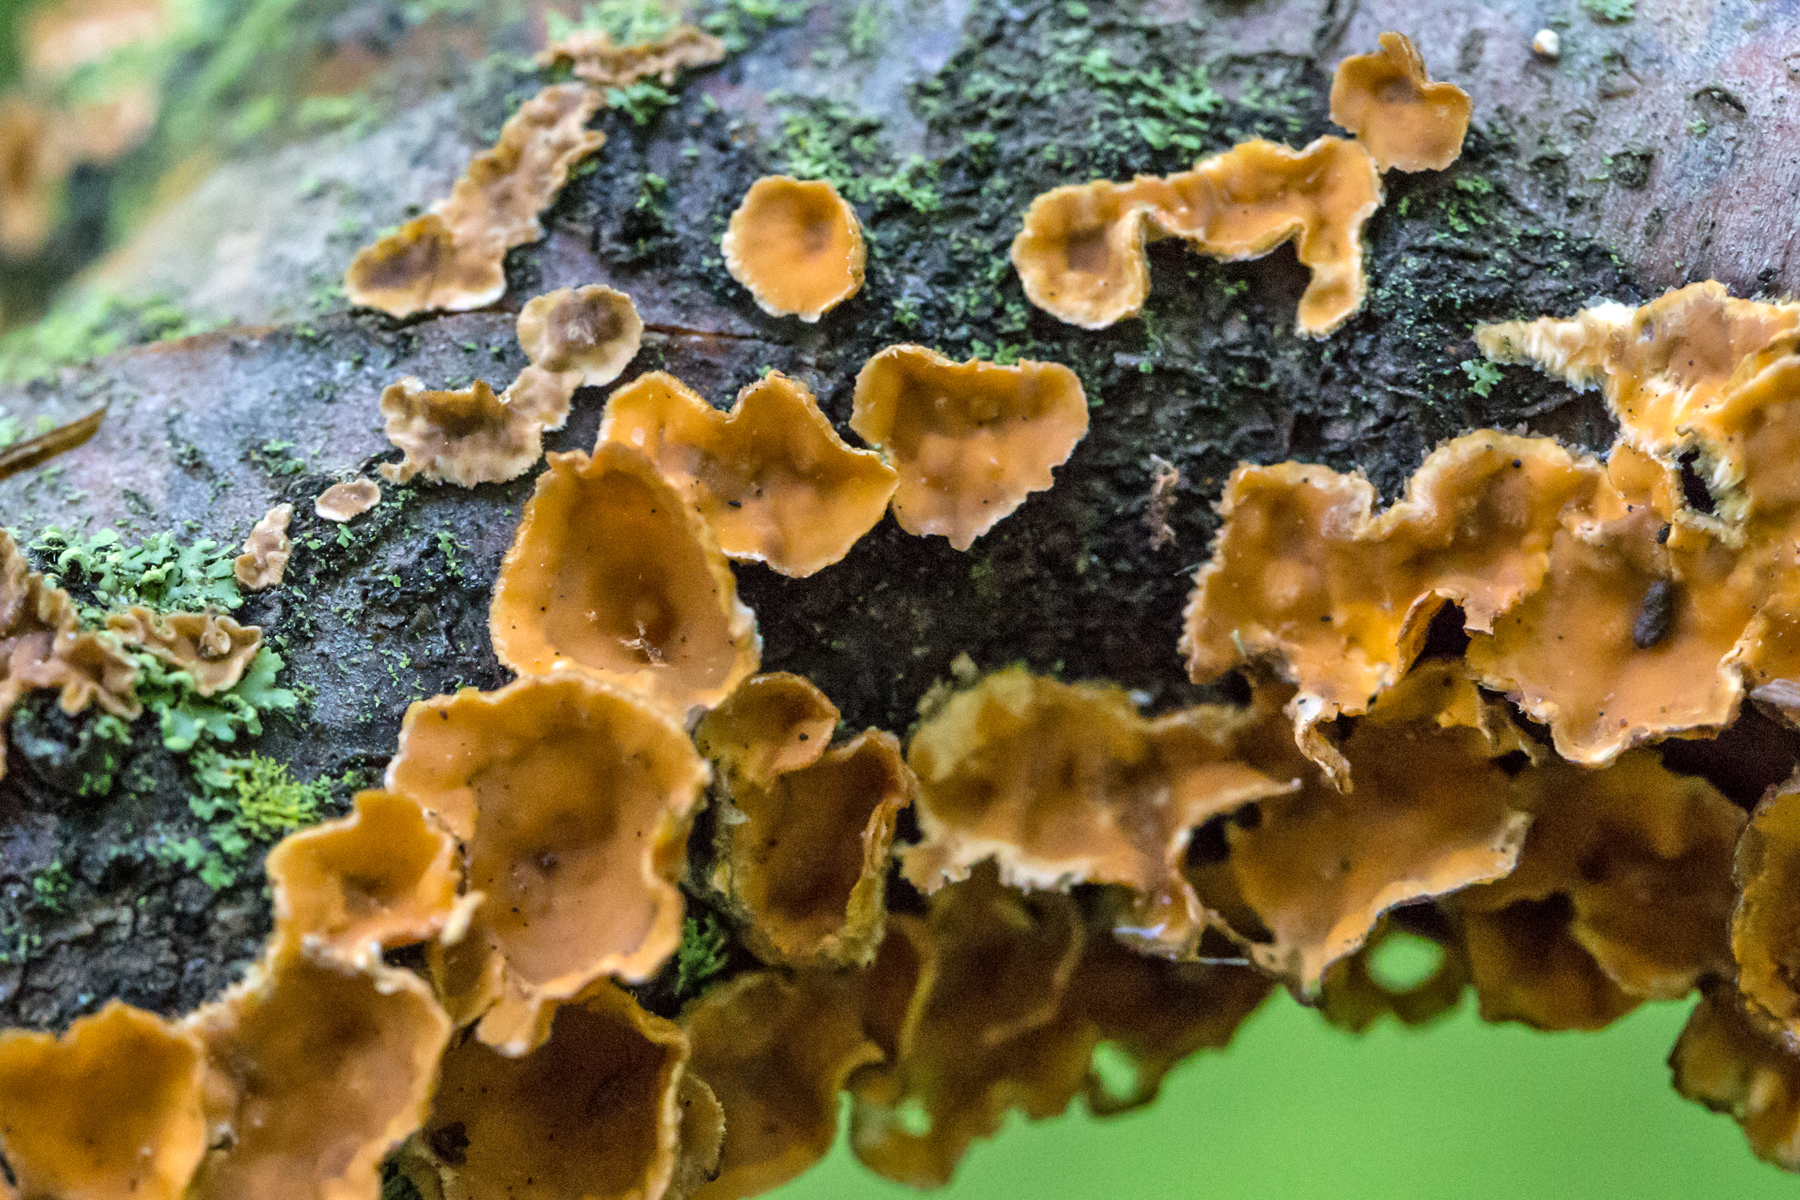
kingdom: Fungi
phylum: Basidiomycota
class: Agaricomycetes
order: Russulales
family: Stereaceae
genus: Stereum
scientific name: Stereum complicatum
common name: Crowded parchment
